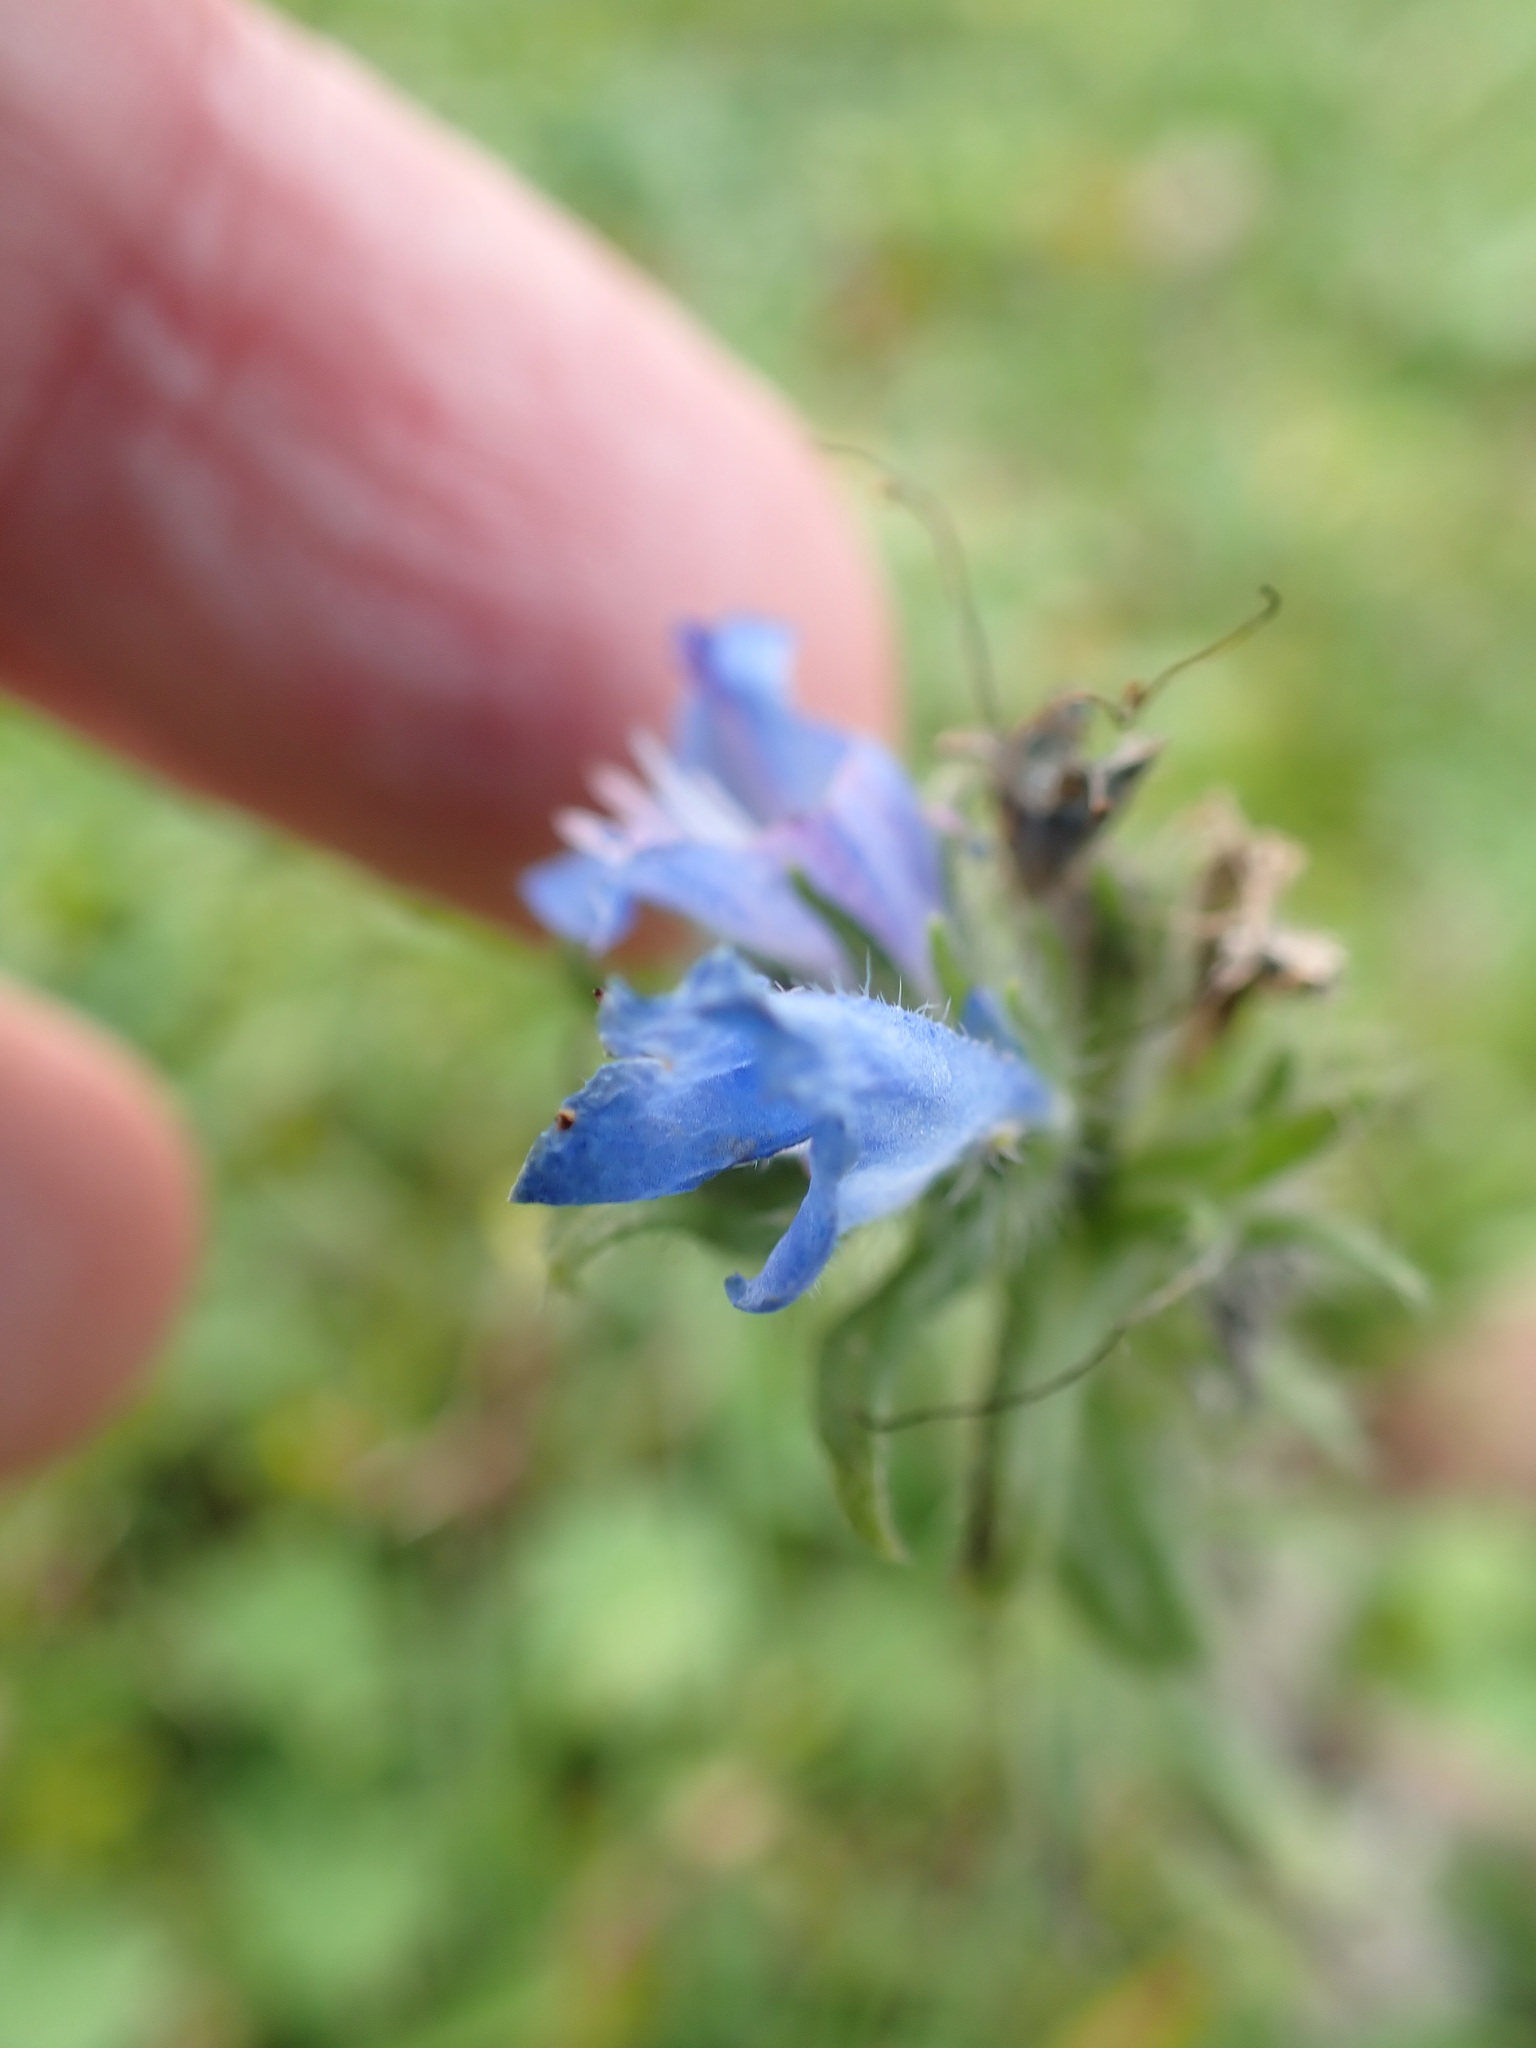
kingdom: Plantae
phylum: Tracheophyta
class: Magnoliopsida
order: Boraginales
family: Boraginaceae
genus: Echium
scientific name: Echium vulgare
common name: Common viper's bugloss
